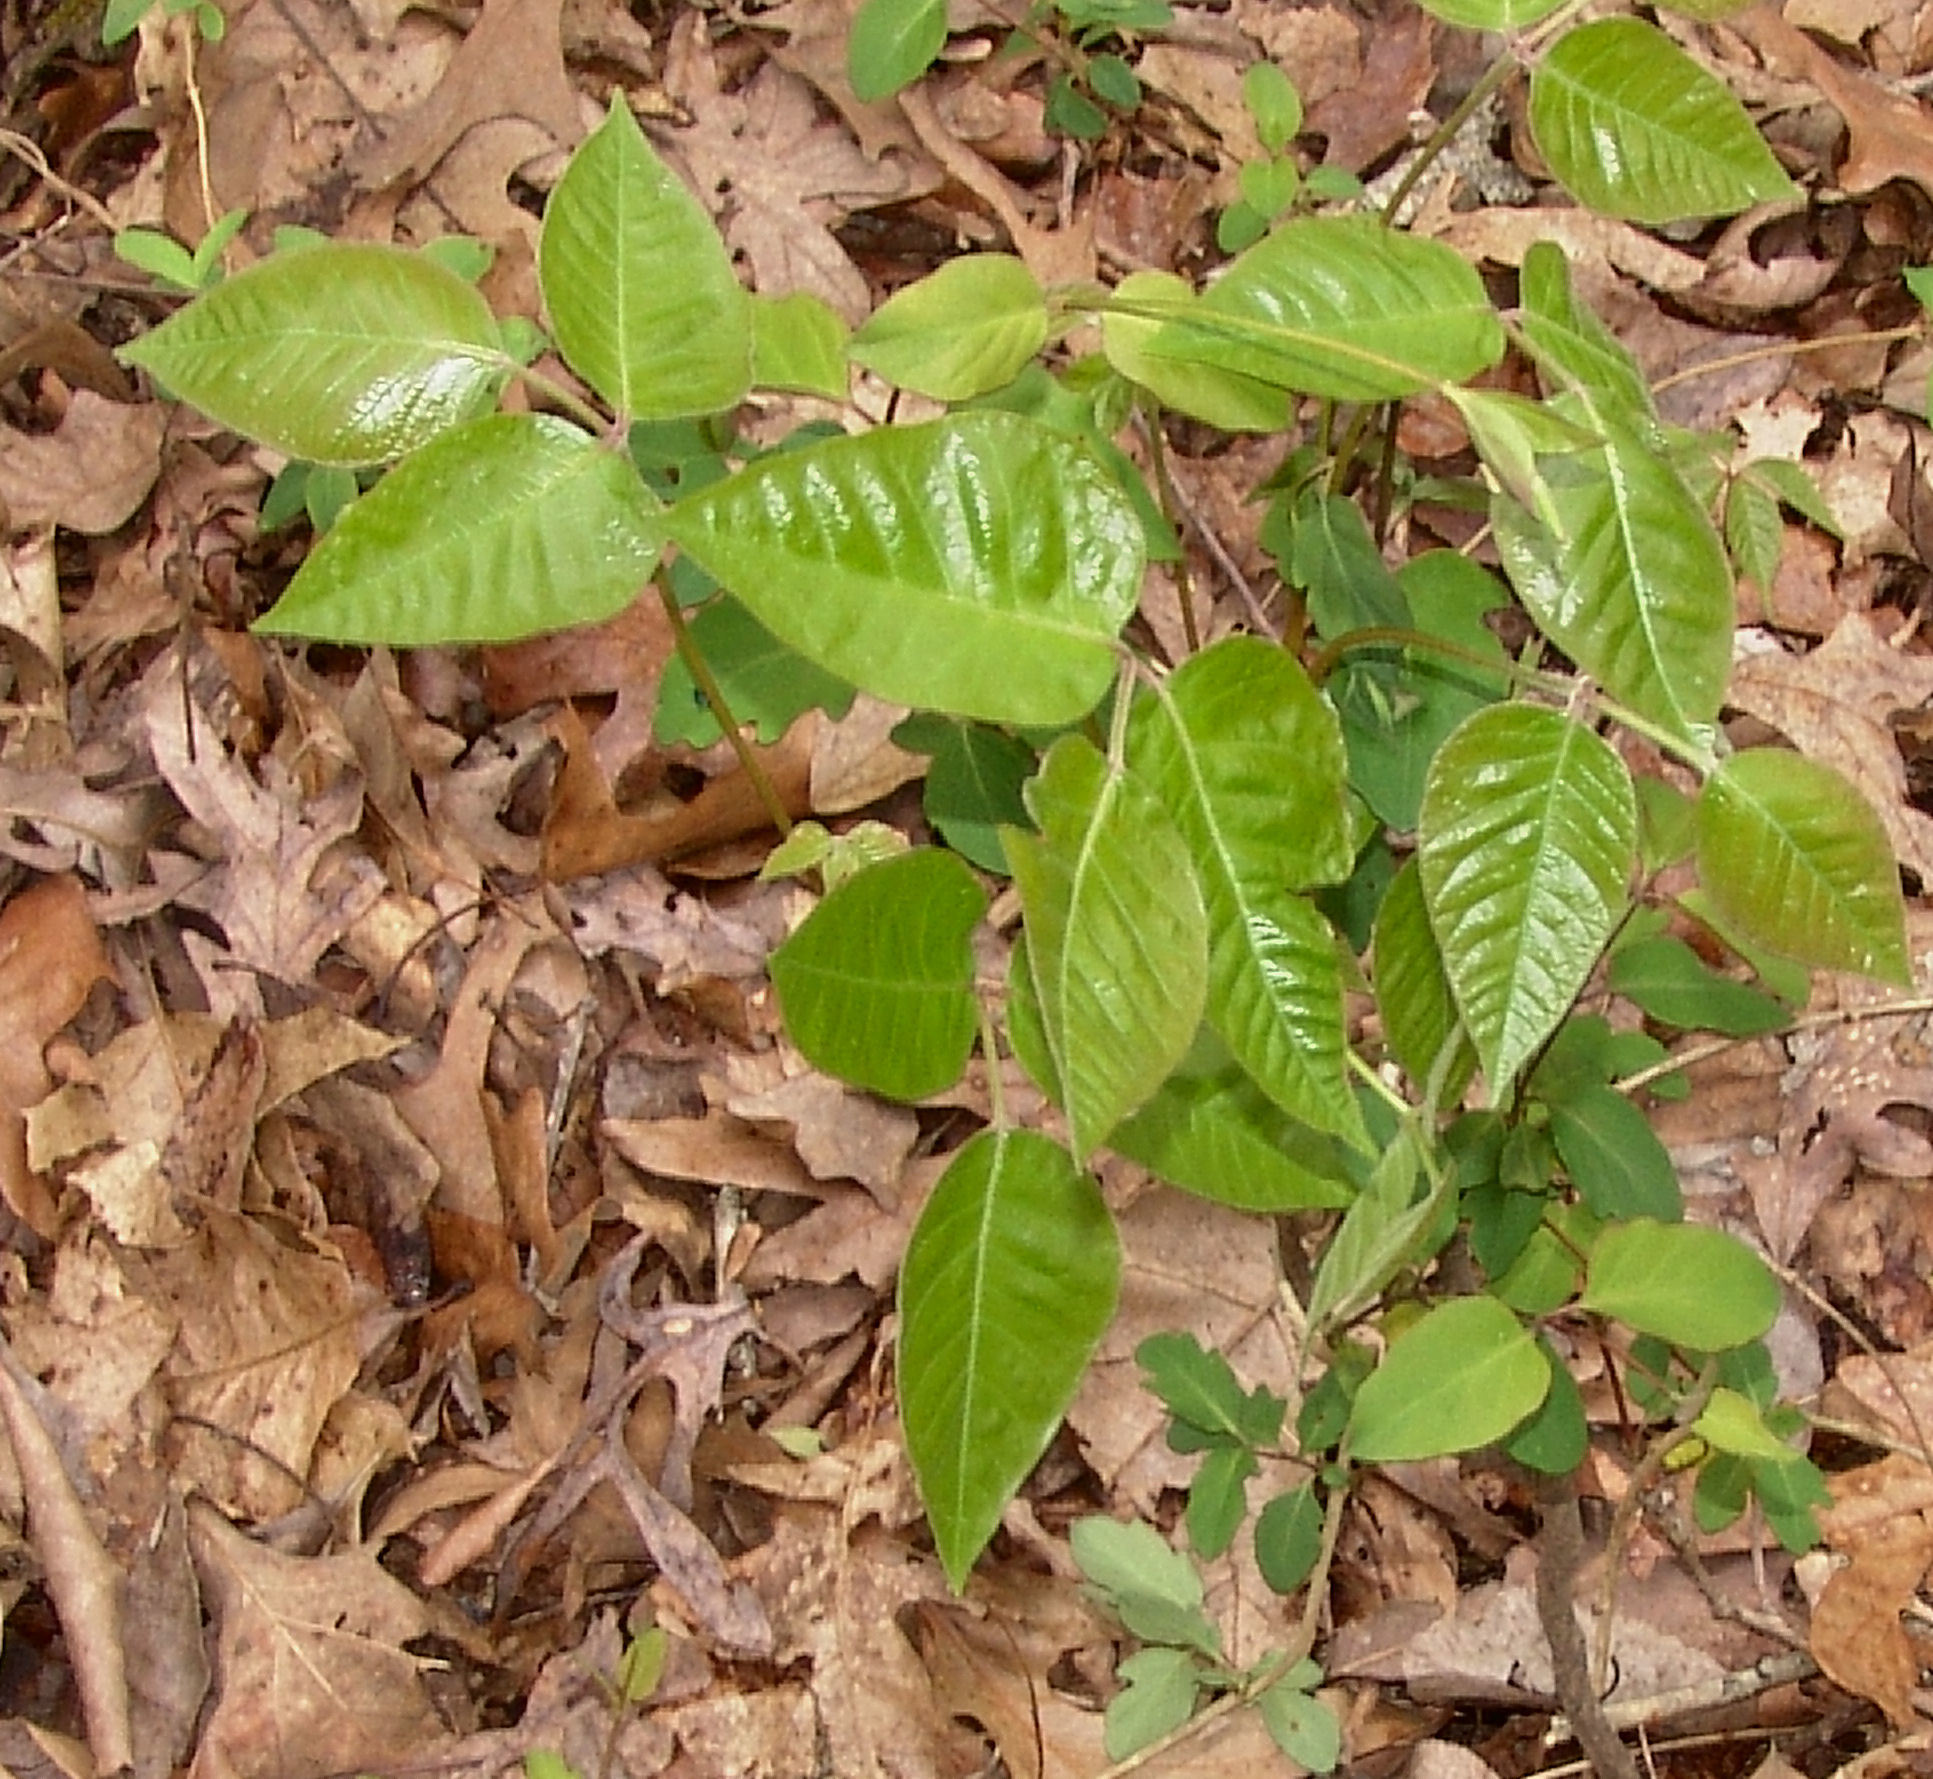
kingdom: Plantae
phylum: Tracheophyta
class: Magnoliopsida
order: Sapindales
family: Anacardiaceae
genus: Toxicodendron
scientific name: Toxicodendron radicans
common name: Poison ivy
